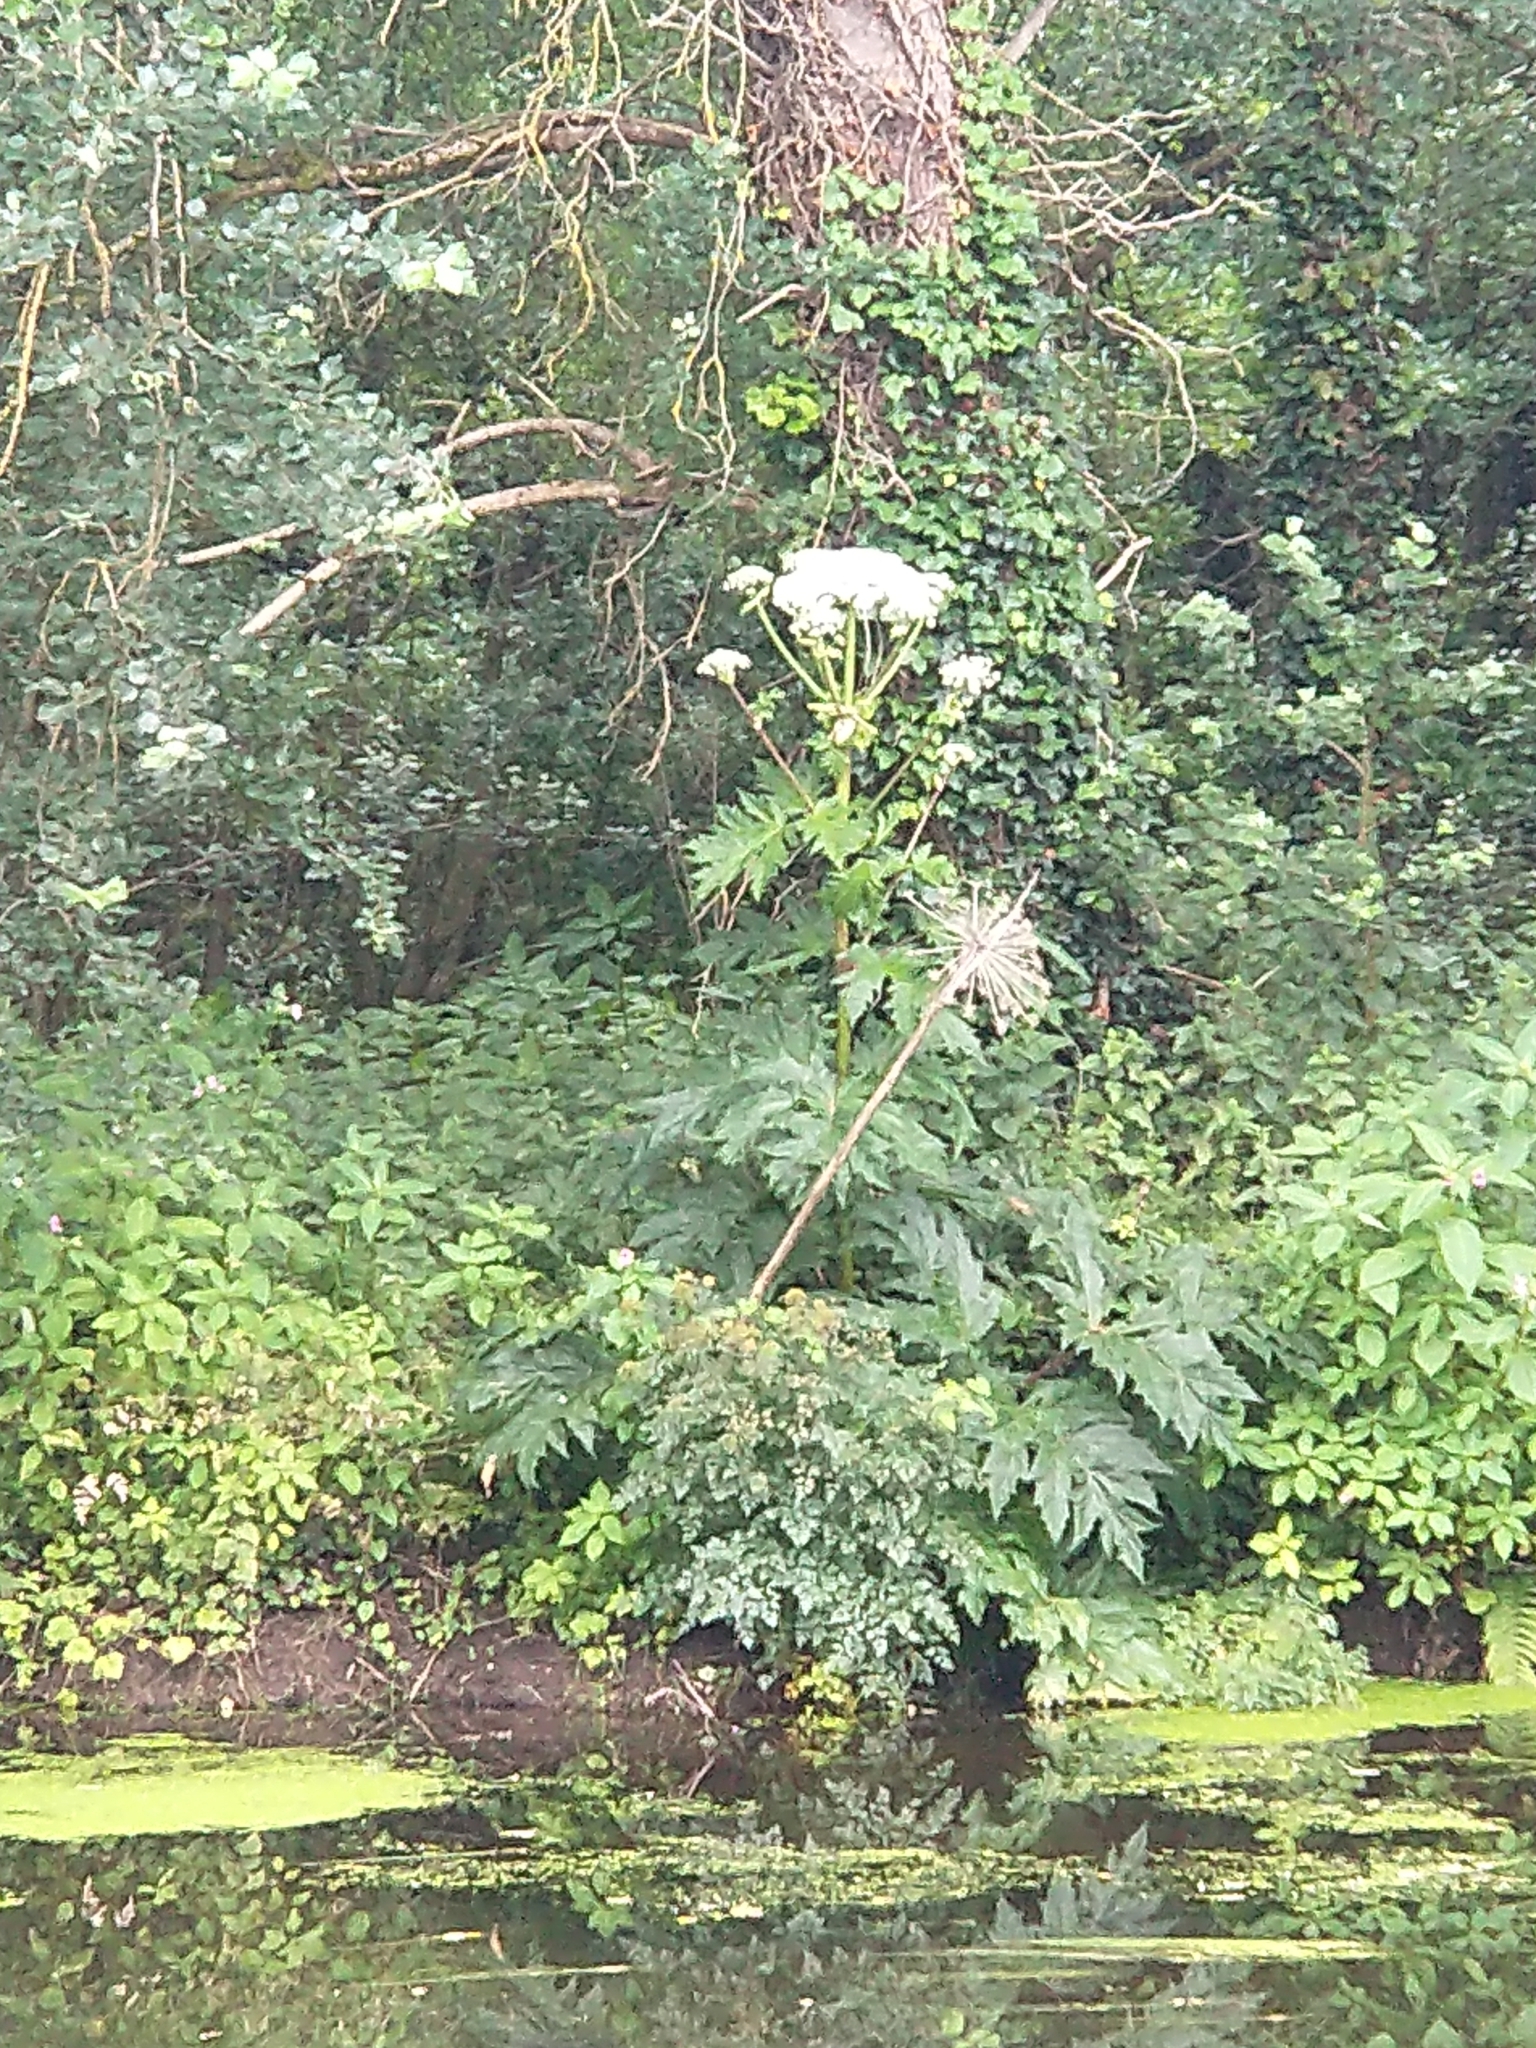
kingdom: Plantae
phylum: Tracheophyta
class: Magnoliopsida
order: Apiales
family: Apiaceae
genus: Heracleum
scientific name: Heracleum mantegazzianum
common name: Giant hogweed
